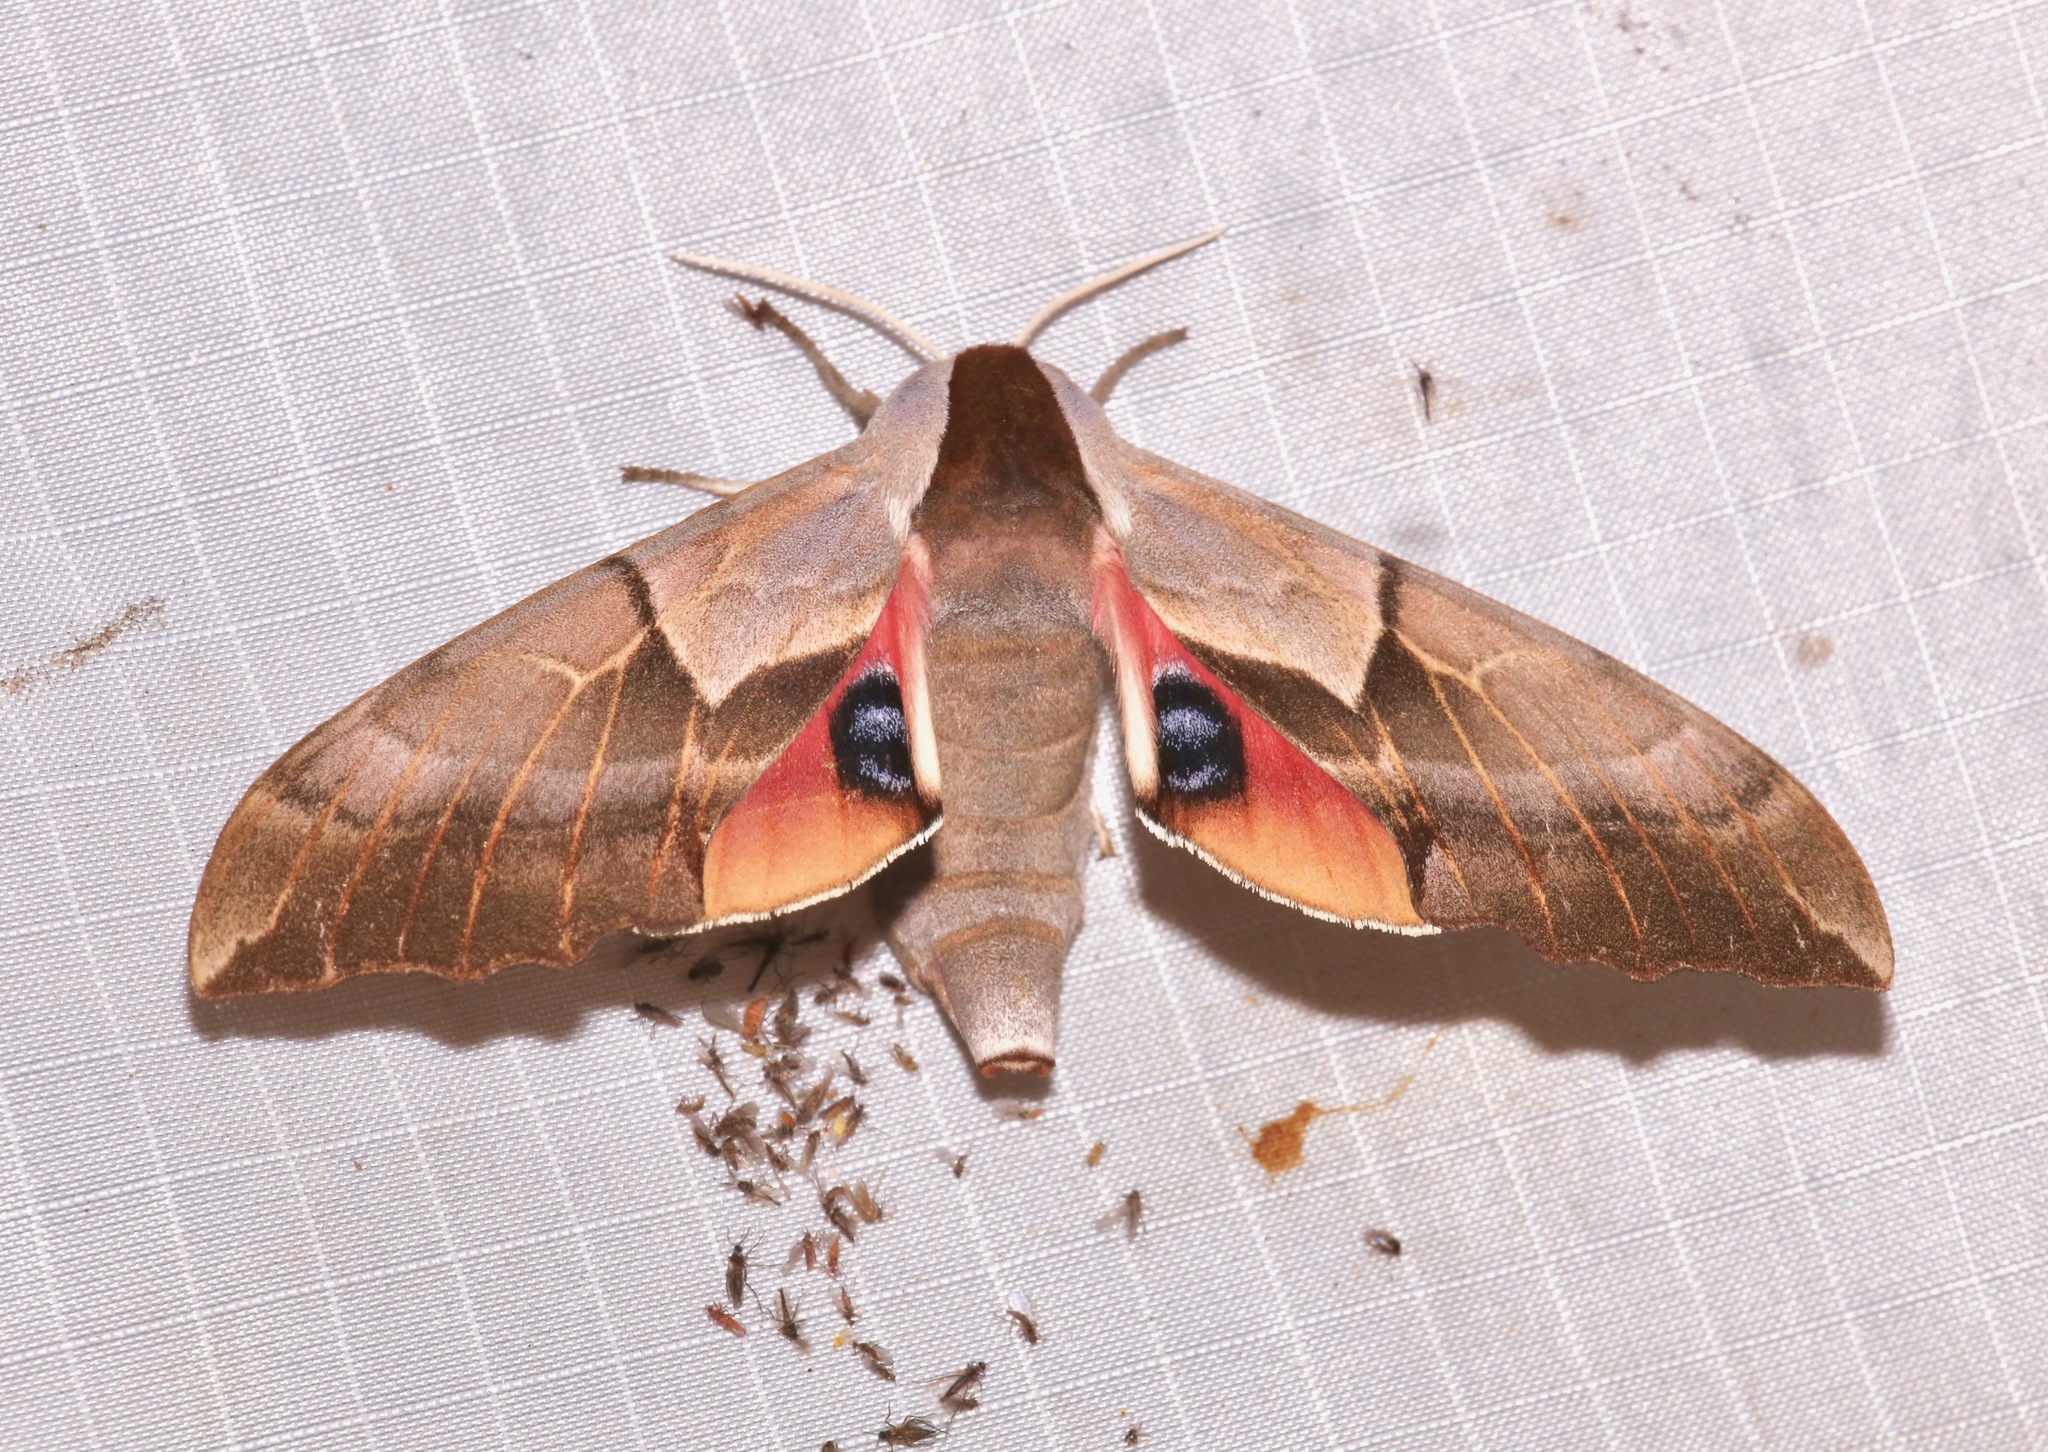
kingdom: Animalia
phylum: Arthropoda
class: Insecta
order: Lepidoptera
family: Sphingidae
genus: Smerinthus
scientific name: Smerinthus cerisyi
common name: Cerisy's sphinx moth
